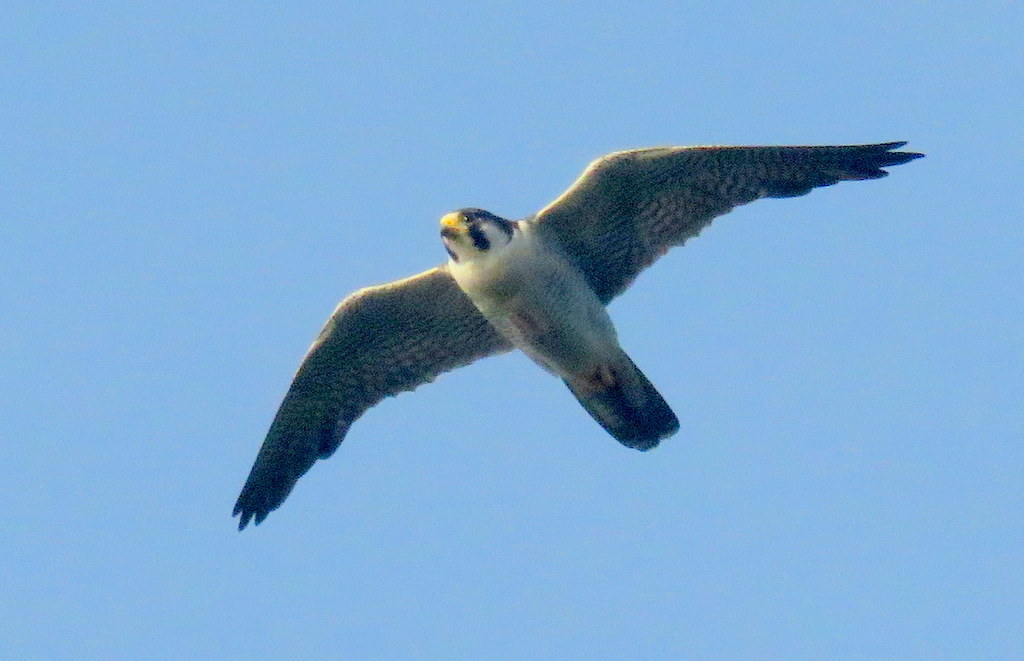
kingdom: Animalia
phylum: Chordata
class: Aves
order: Falconiformes
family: Falconidae
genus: Falco
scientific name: Falco peregrinus
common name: Peregrine falcon
